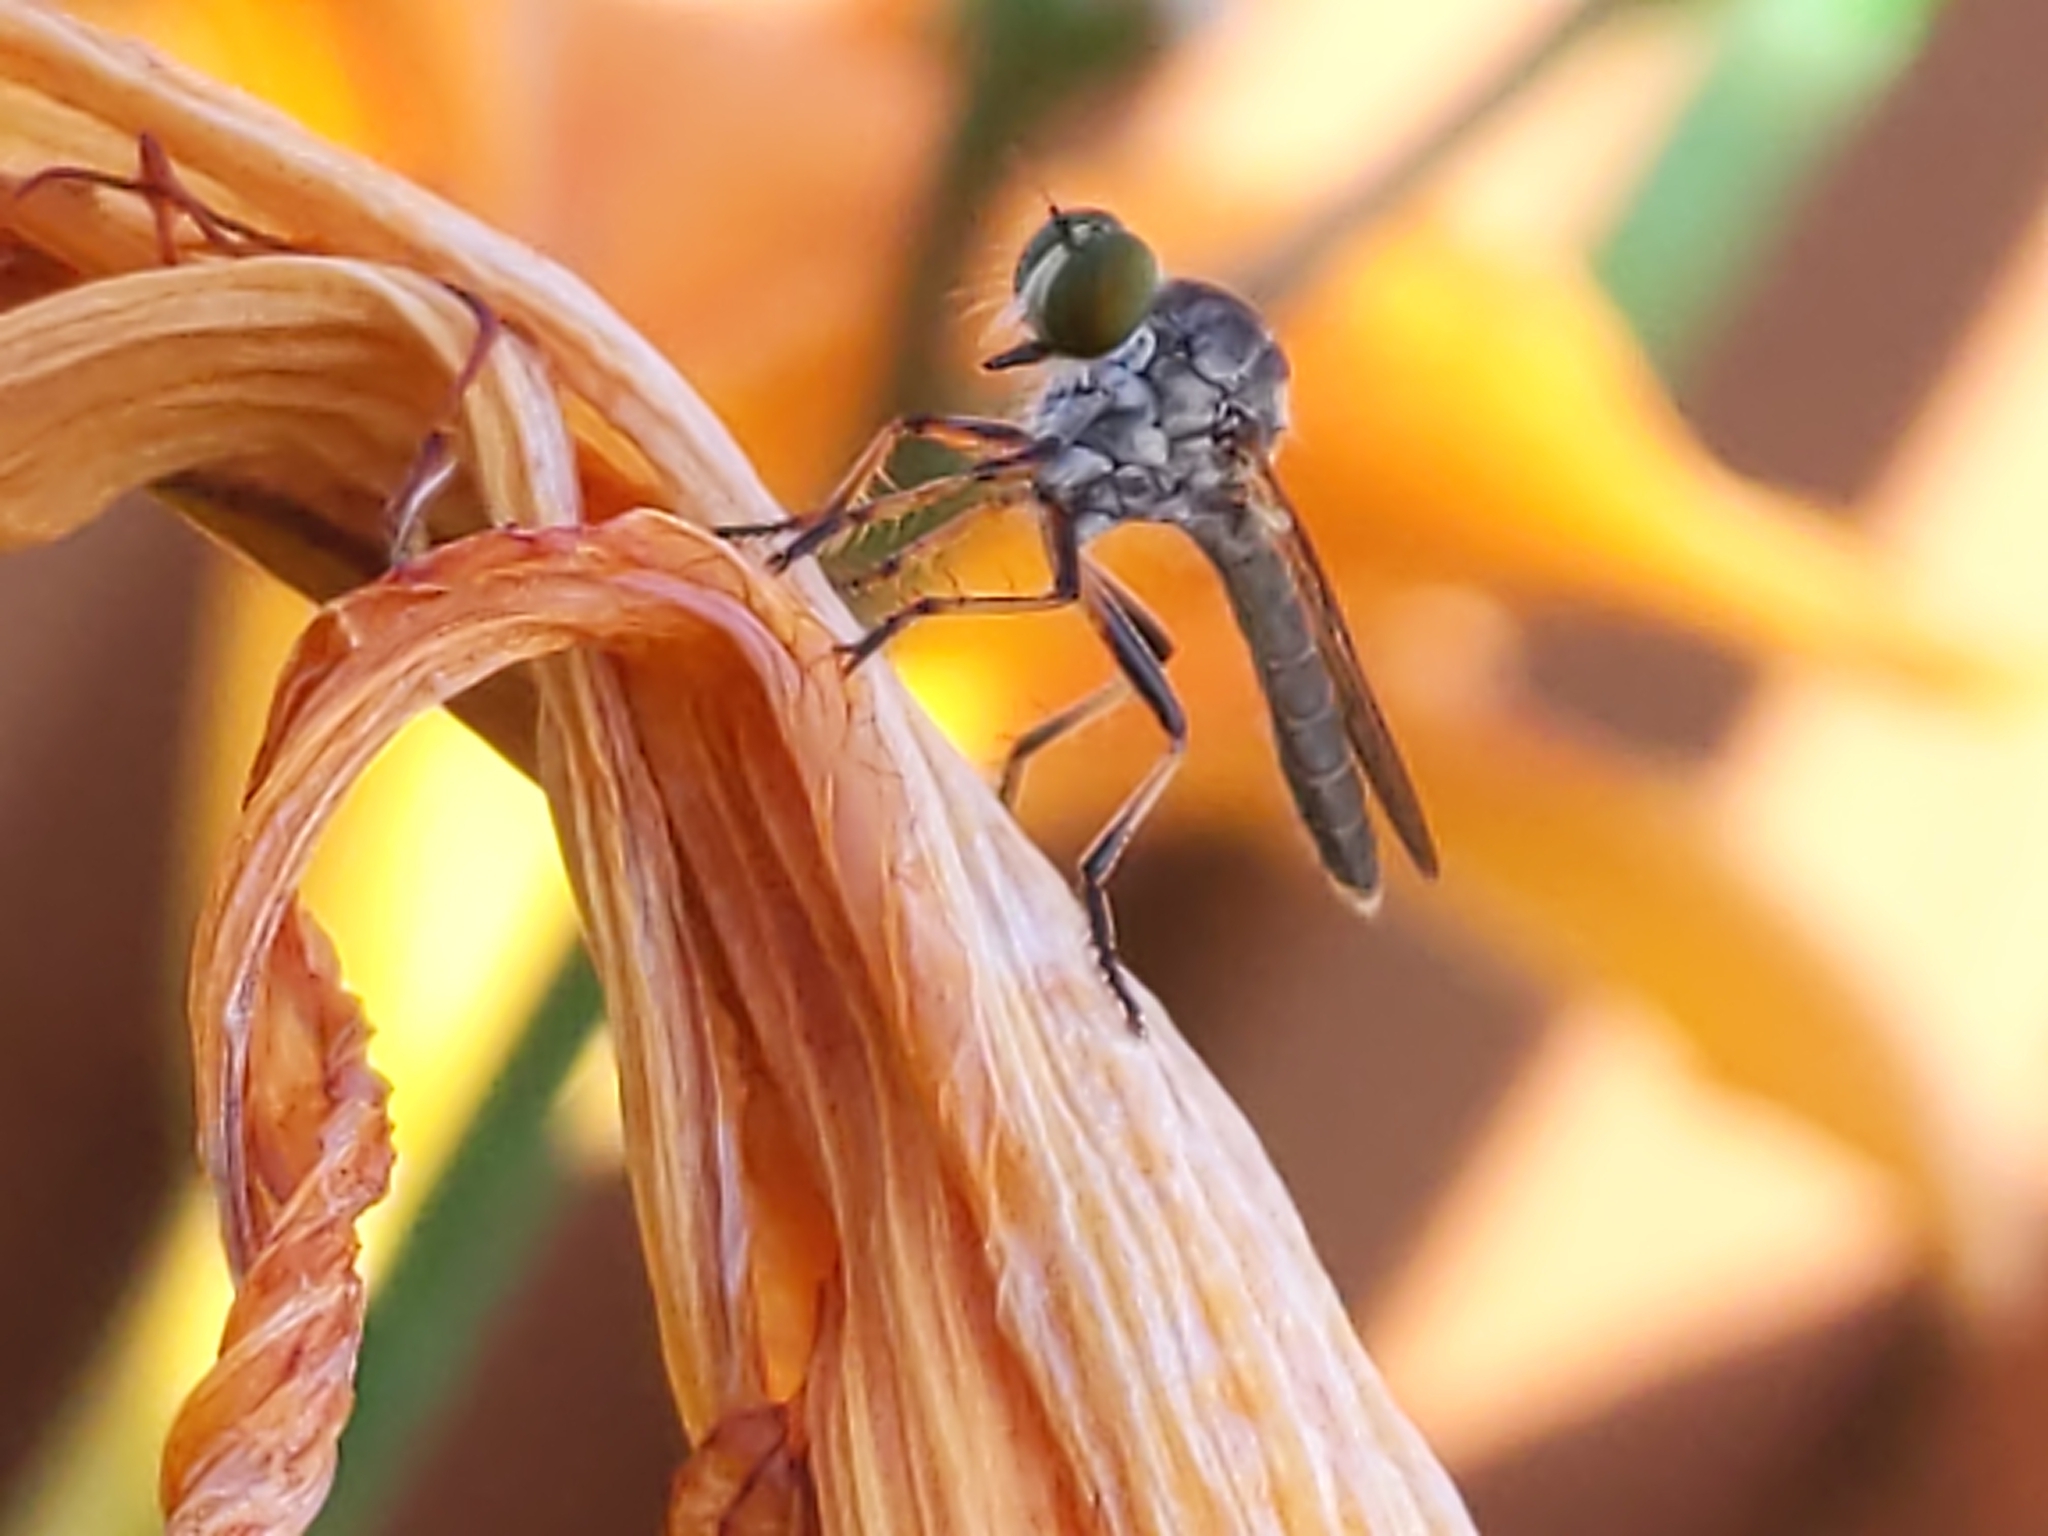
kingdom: Animalia
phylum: Arthropoda
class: Insecta
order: Diptera
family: Asilidae
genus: Ommatius
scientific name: Ommatius
